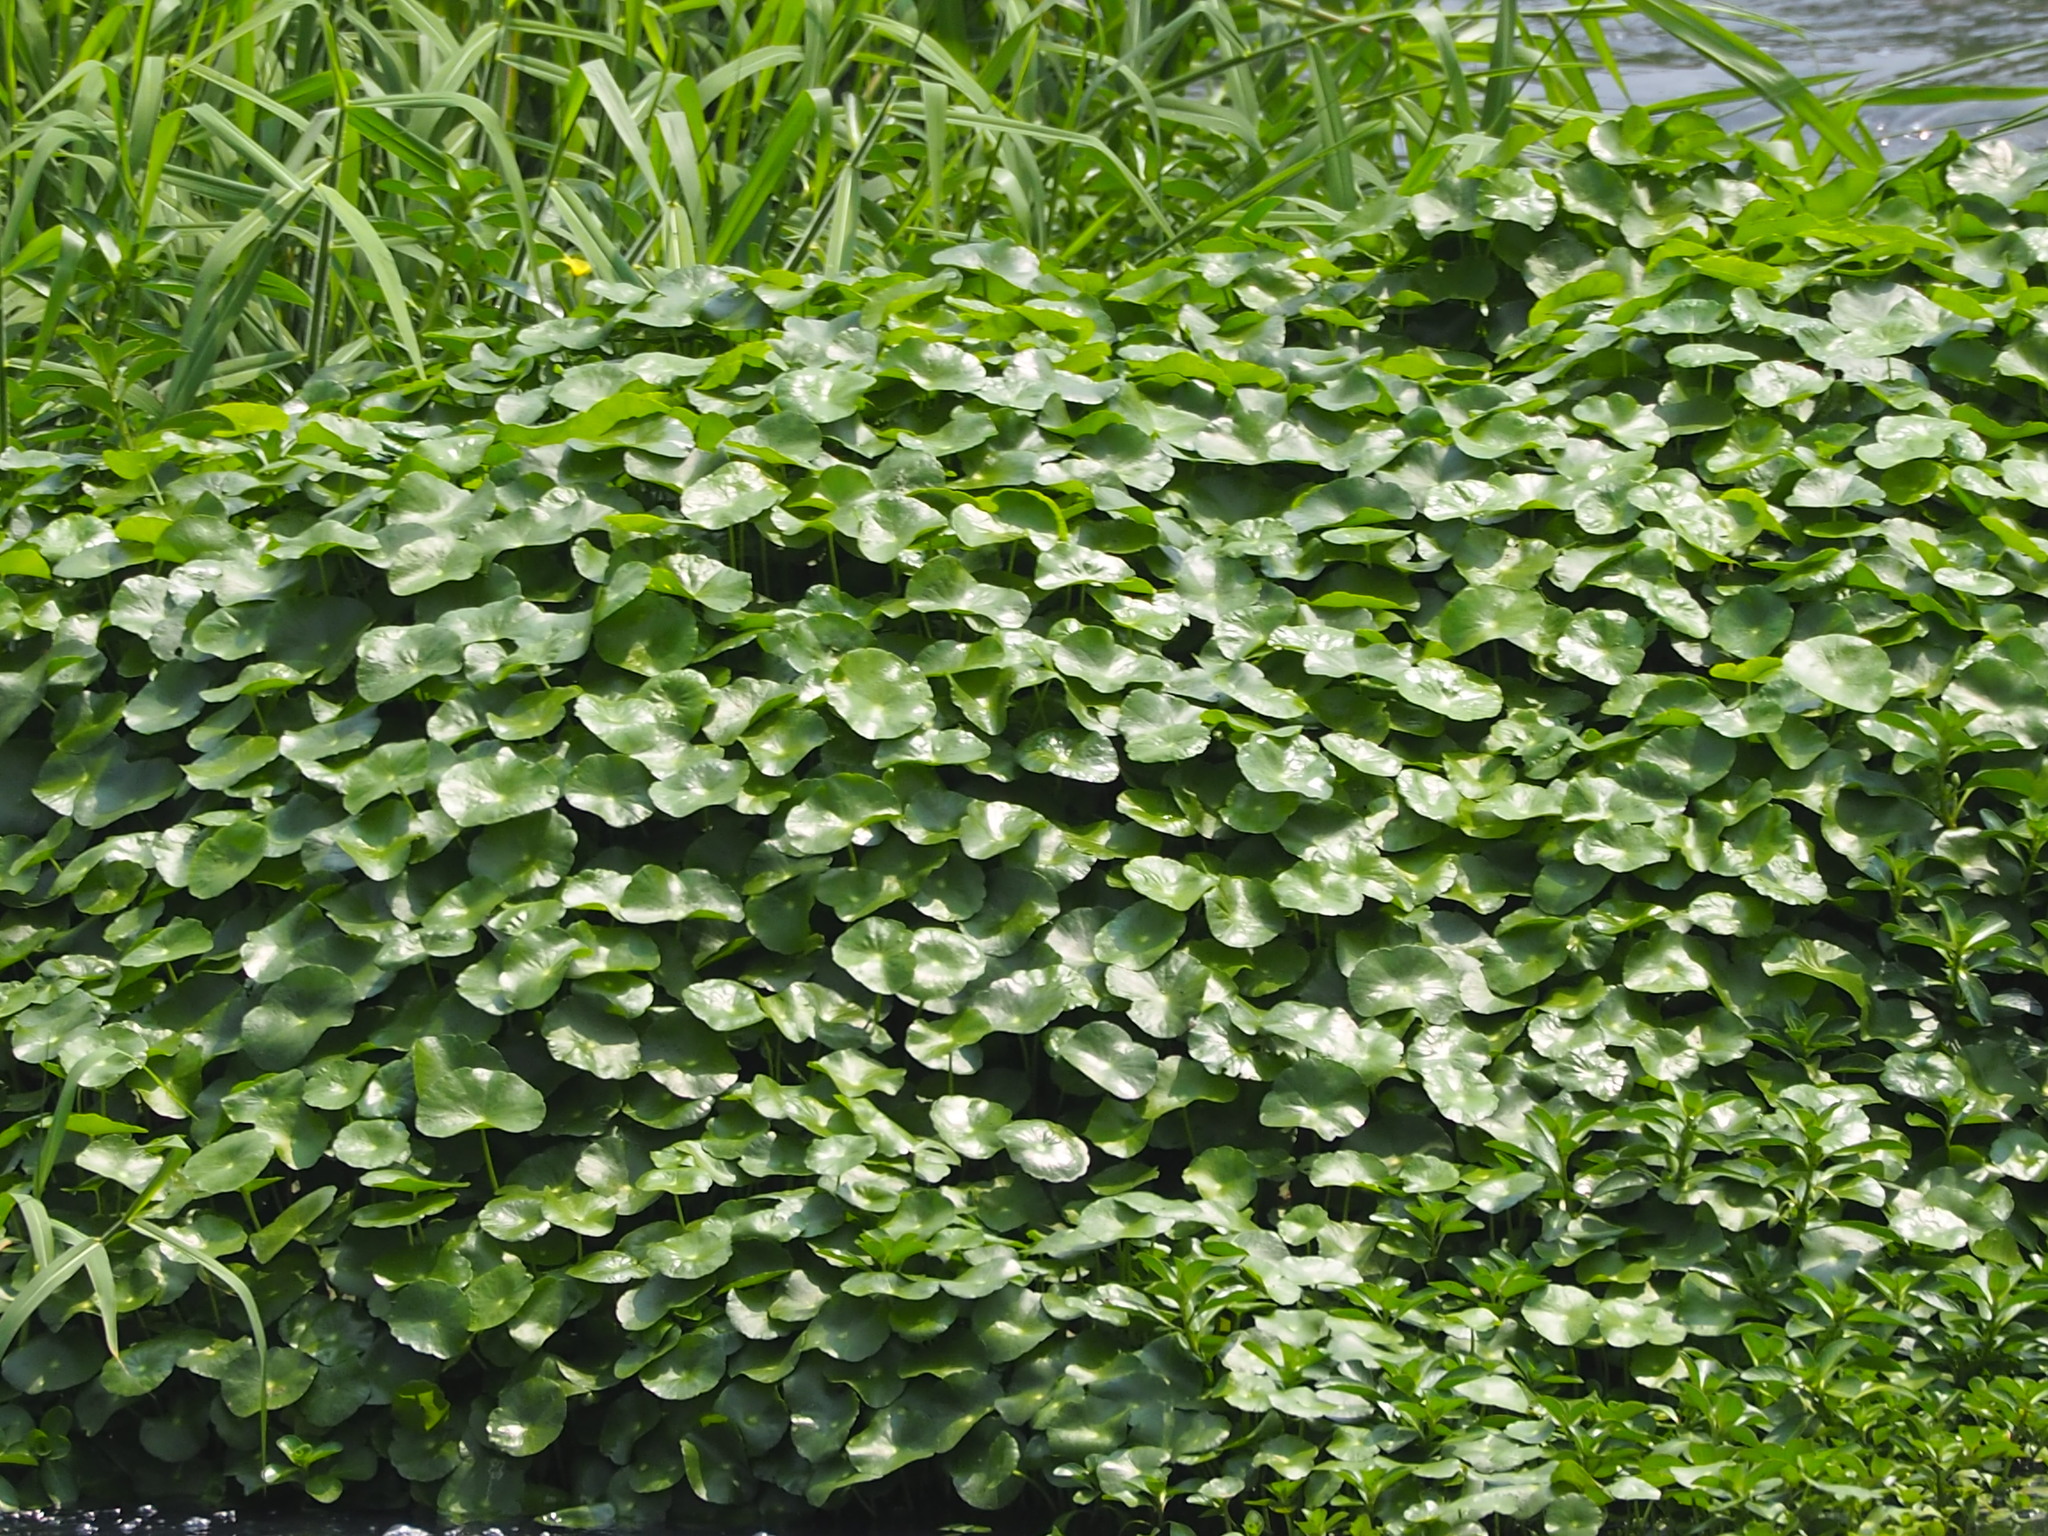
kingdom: Plantae
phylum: Tracheophyta
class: Magnoliopsida
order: Apiales
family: Araliaceae
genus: Hydrocotyle
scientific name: Hydrocotyle verticillata
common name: Whorled marshpennywort
